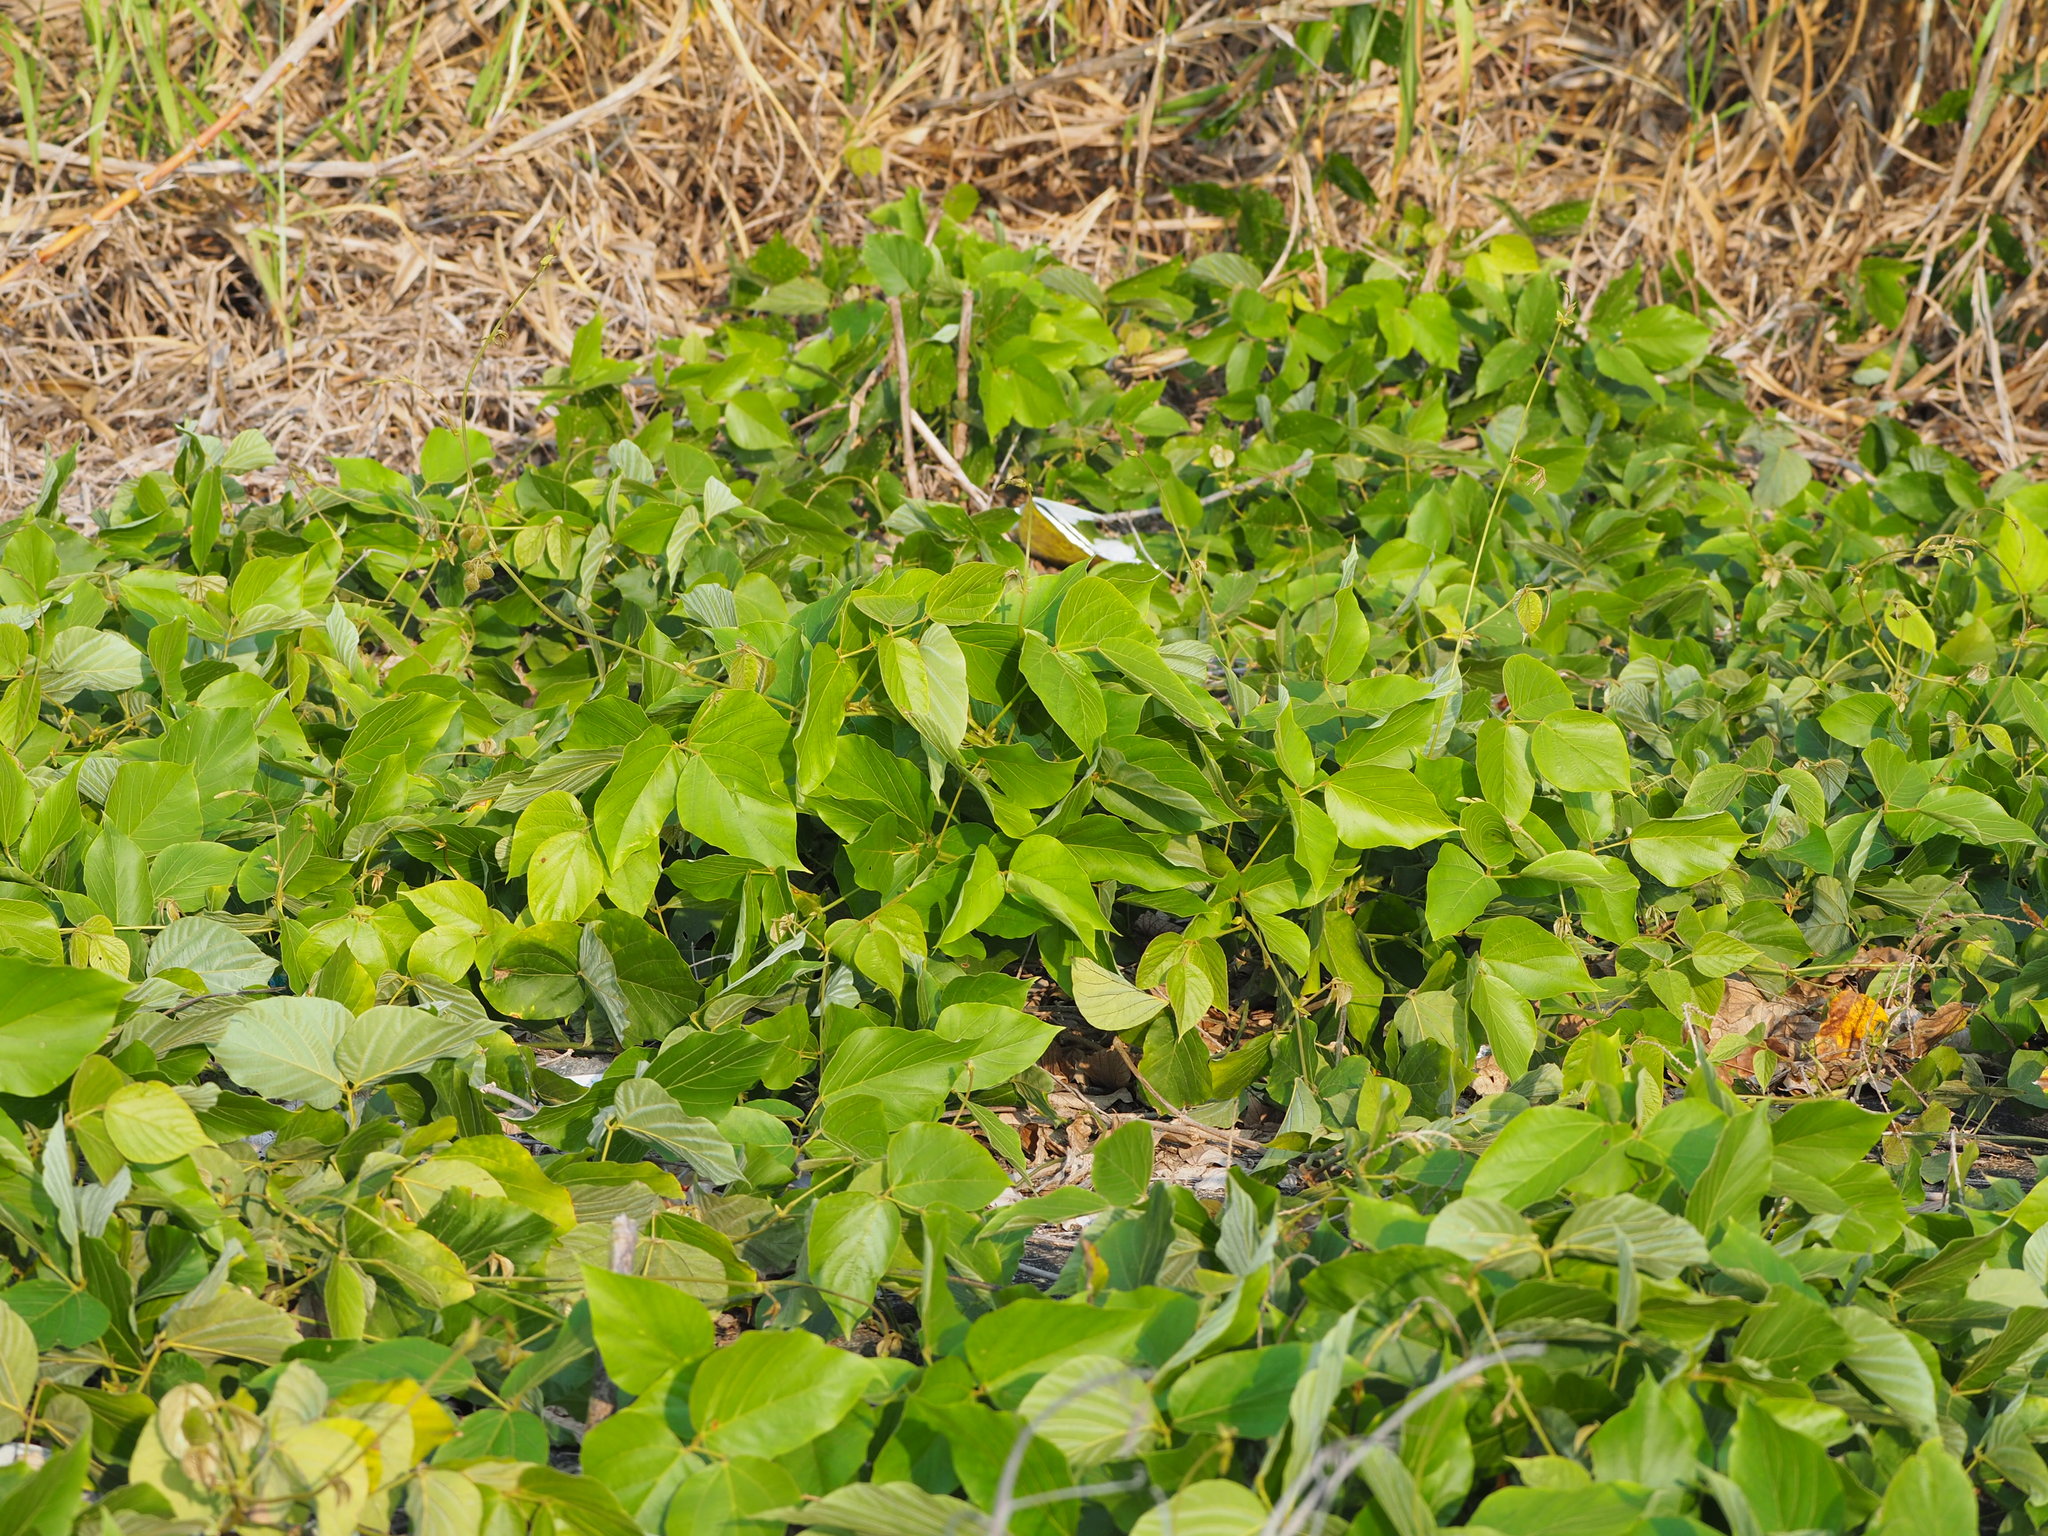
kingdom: Plantae
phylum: Tracheophyta
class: Magnoliopsida
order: Fabales
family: Fabaceae
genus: Pueraria
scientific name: Pueraria montana
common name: Kudzu
